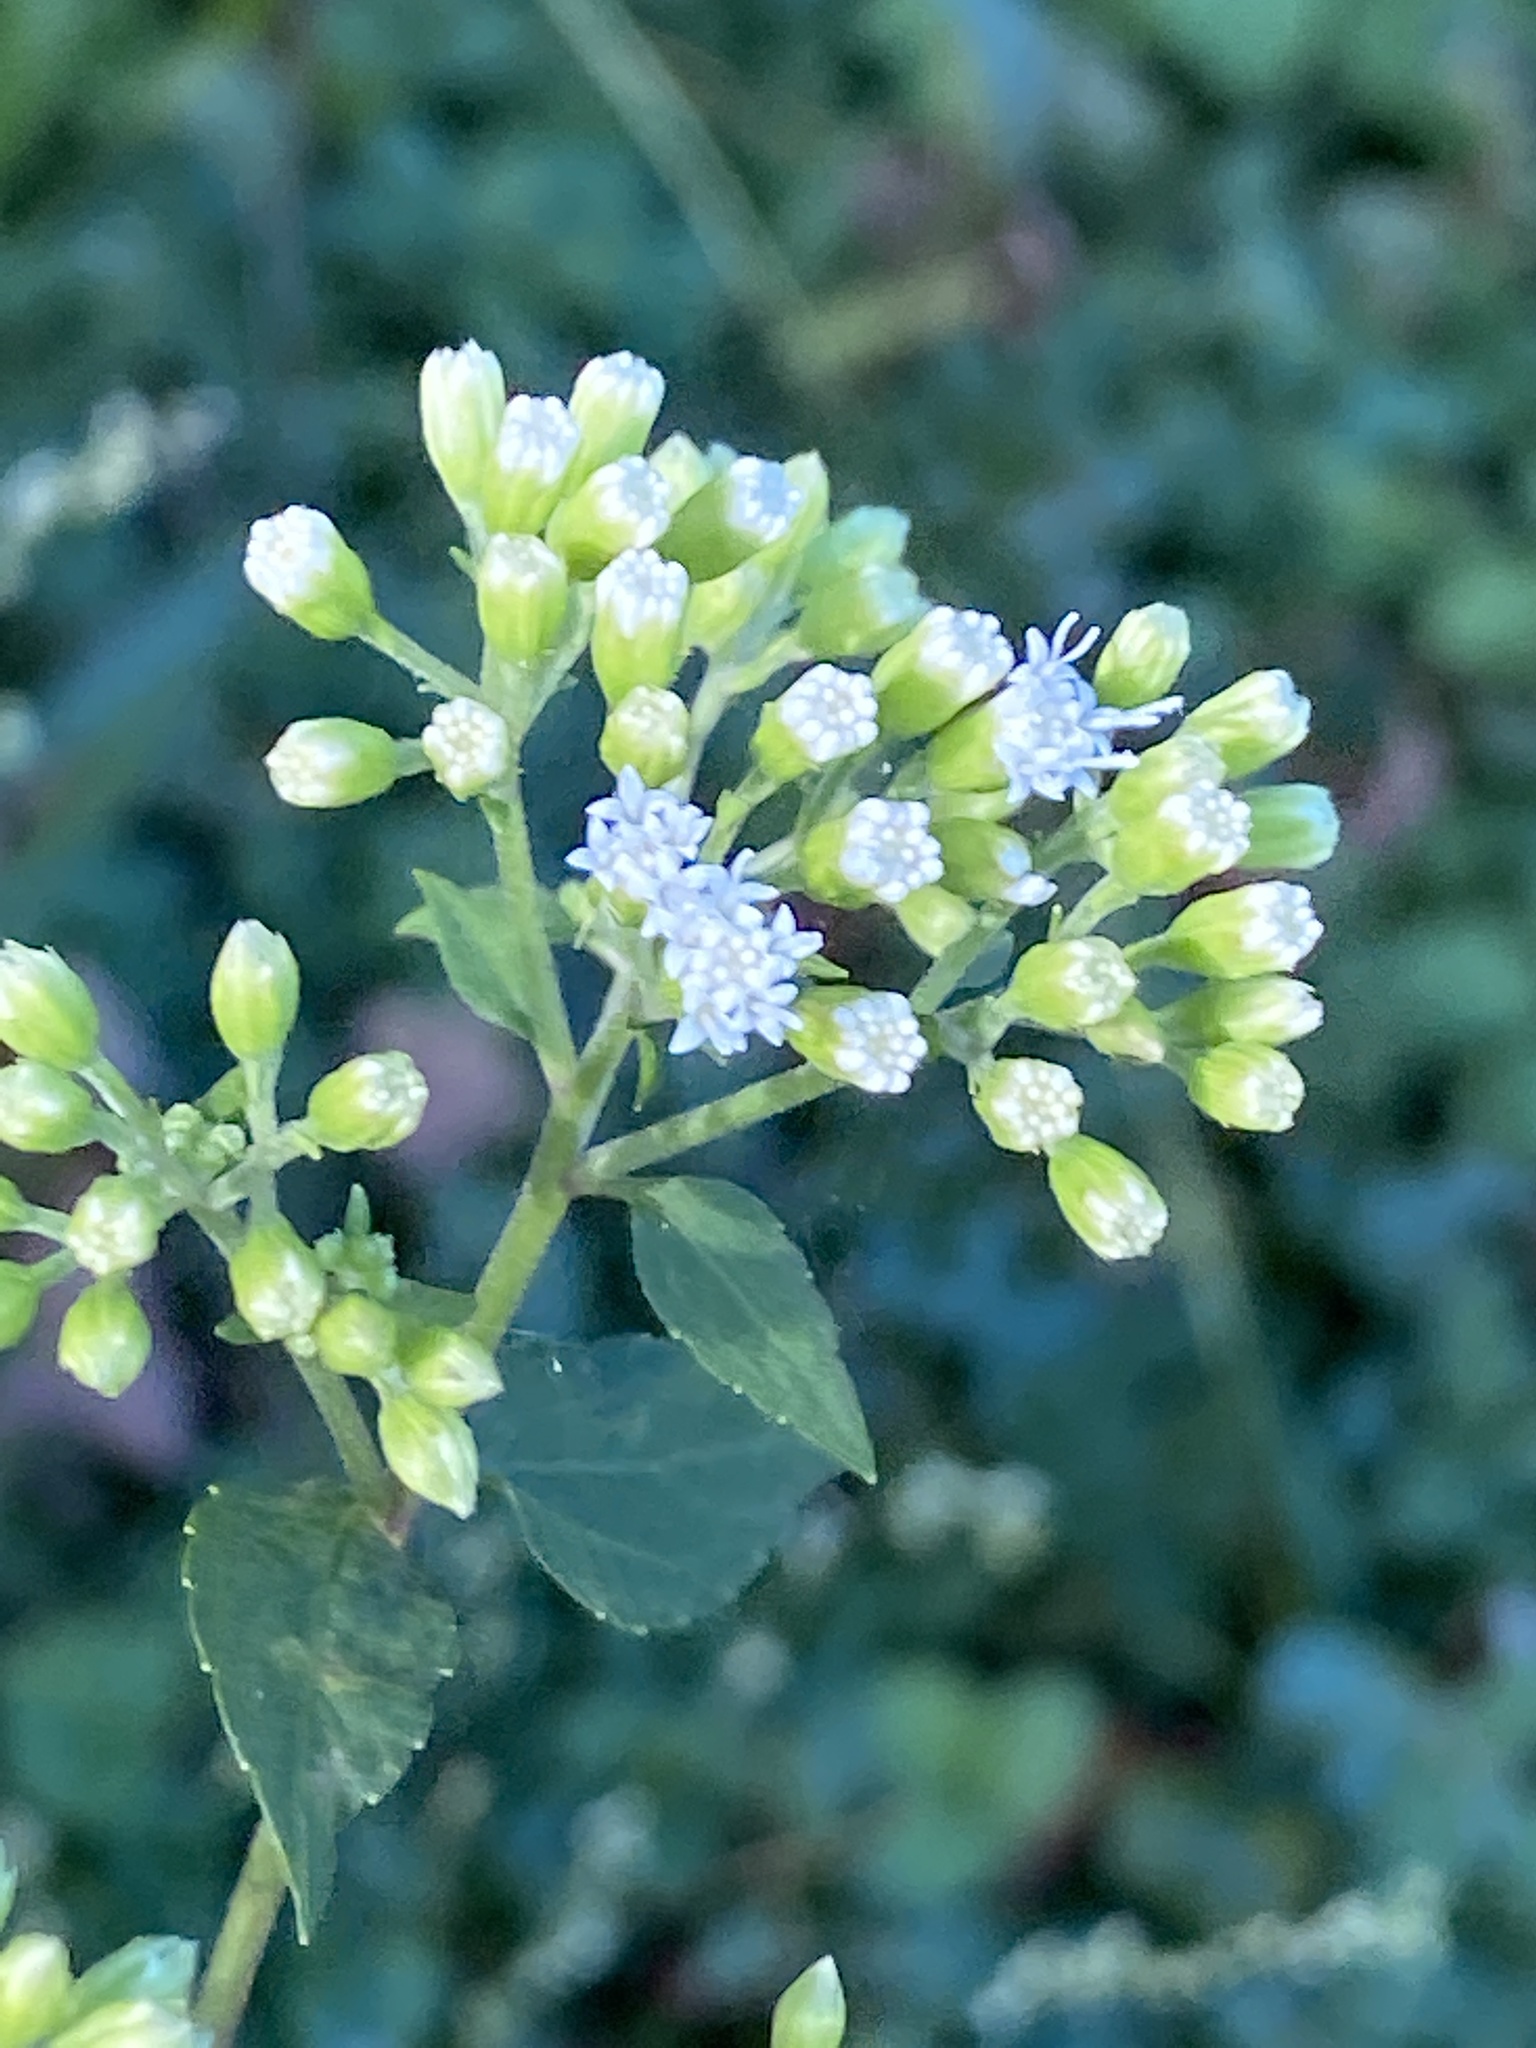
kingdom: Plantae
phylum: Tracheophyta
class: Magnoliopsida
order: Asterales
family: Asteraceae
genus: Ageratina
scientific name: Ageratina altissima
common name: White snakeroot
